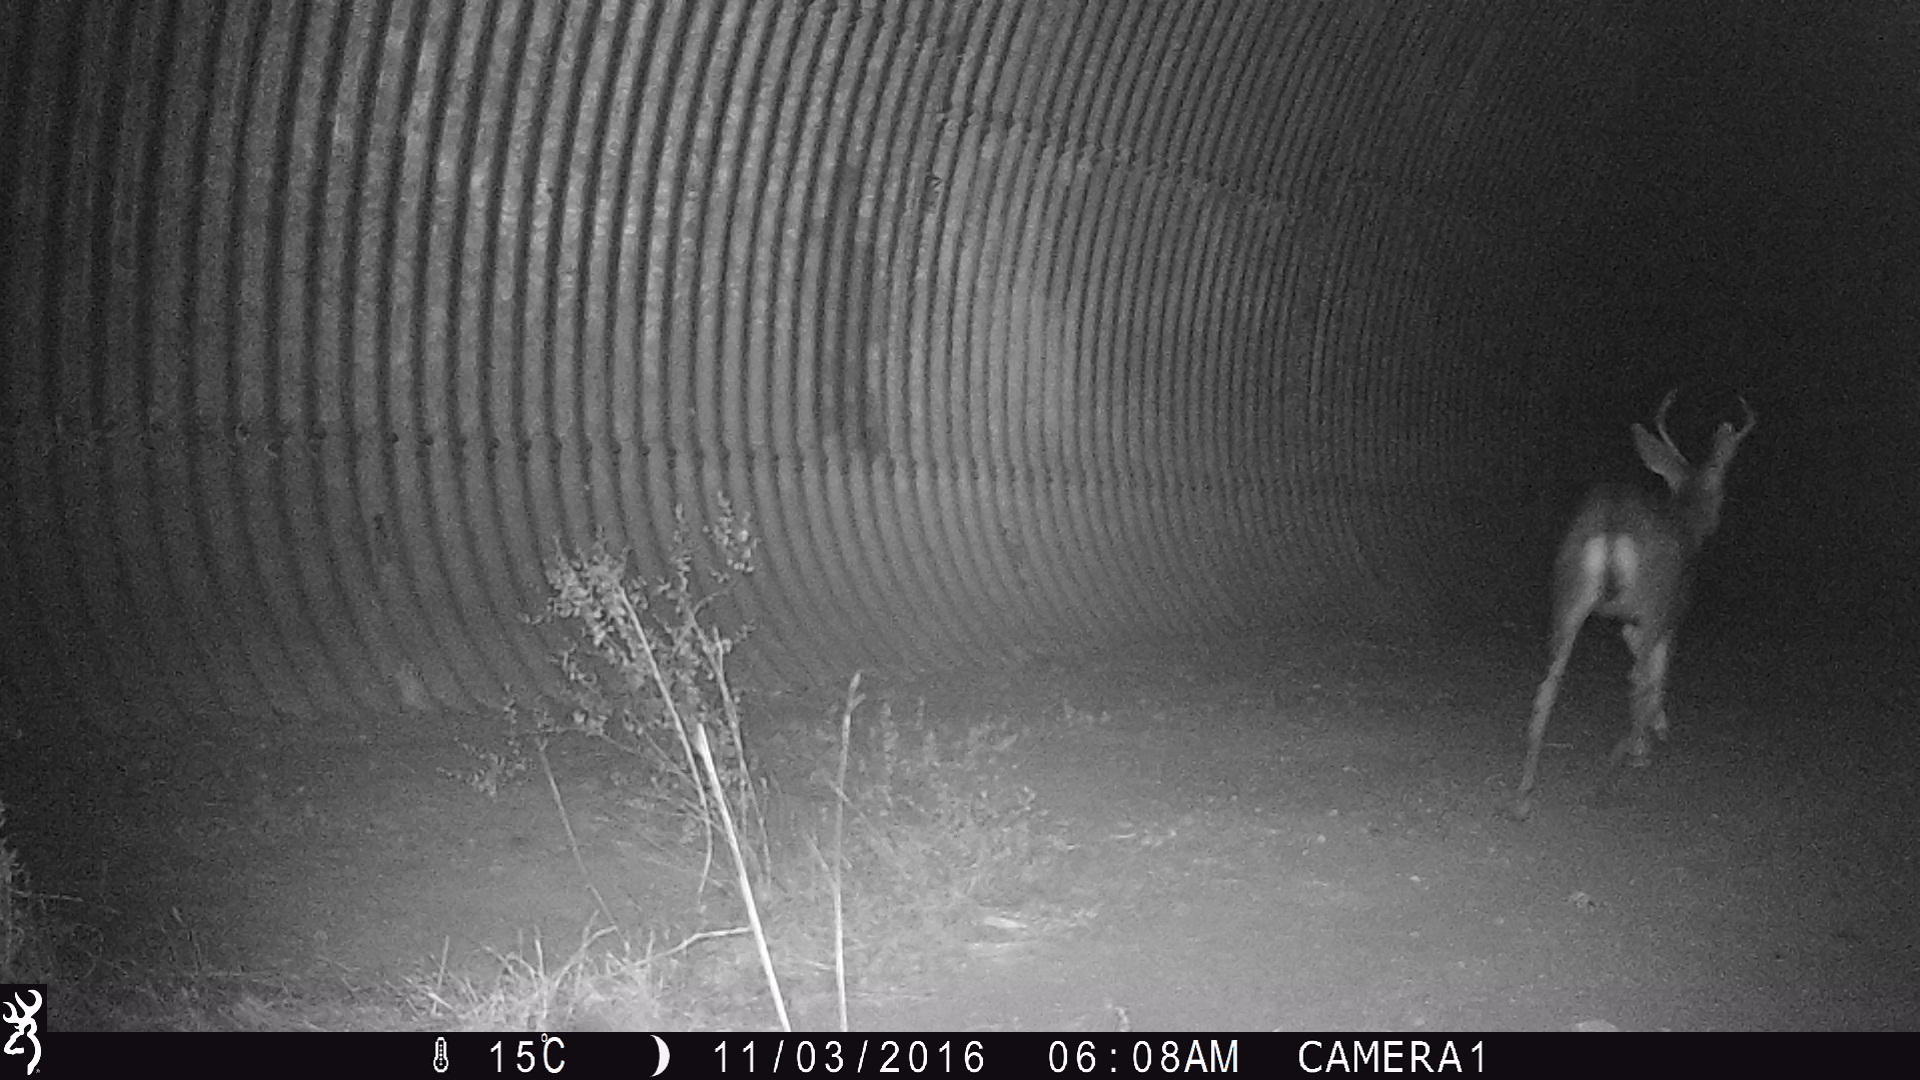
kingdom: Animalia
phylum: Chordata
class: Mammalia
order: Artiodactyla
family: Cervidae
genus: Odocoileus
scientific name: Odocoileus hemionus
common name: Mule deer
